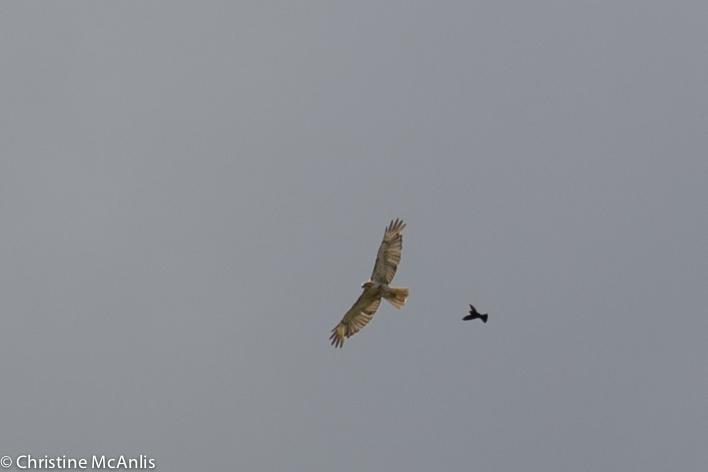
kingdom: Animalia
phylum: Chordata
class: Aves
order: Accipitriformes
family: Accipitridae
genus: Buteo
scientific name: Buteo jamaicensis
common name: Red-tailed hawk
